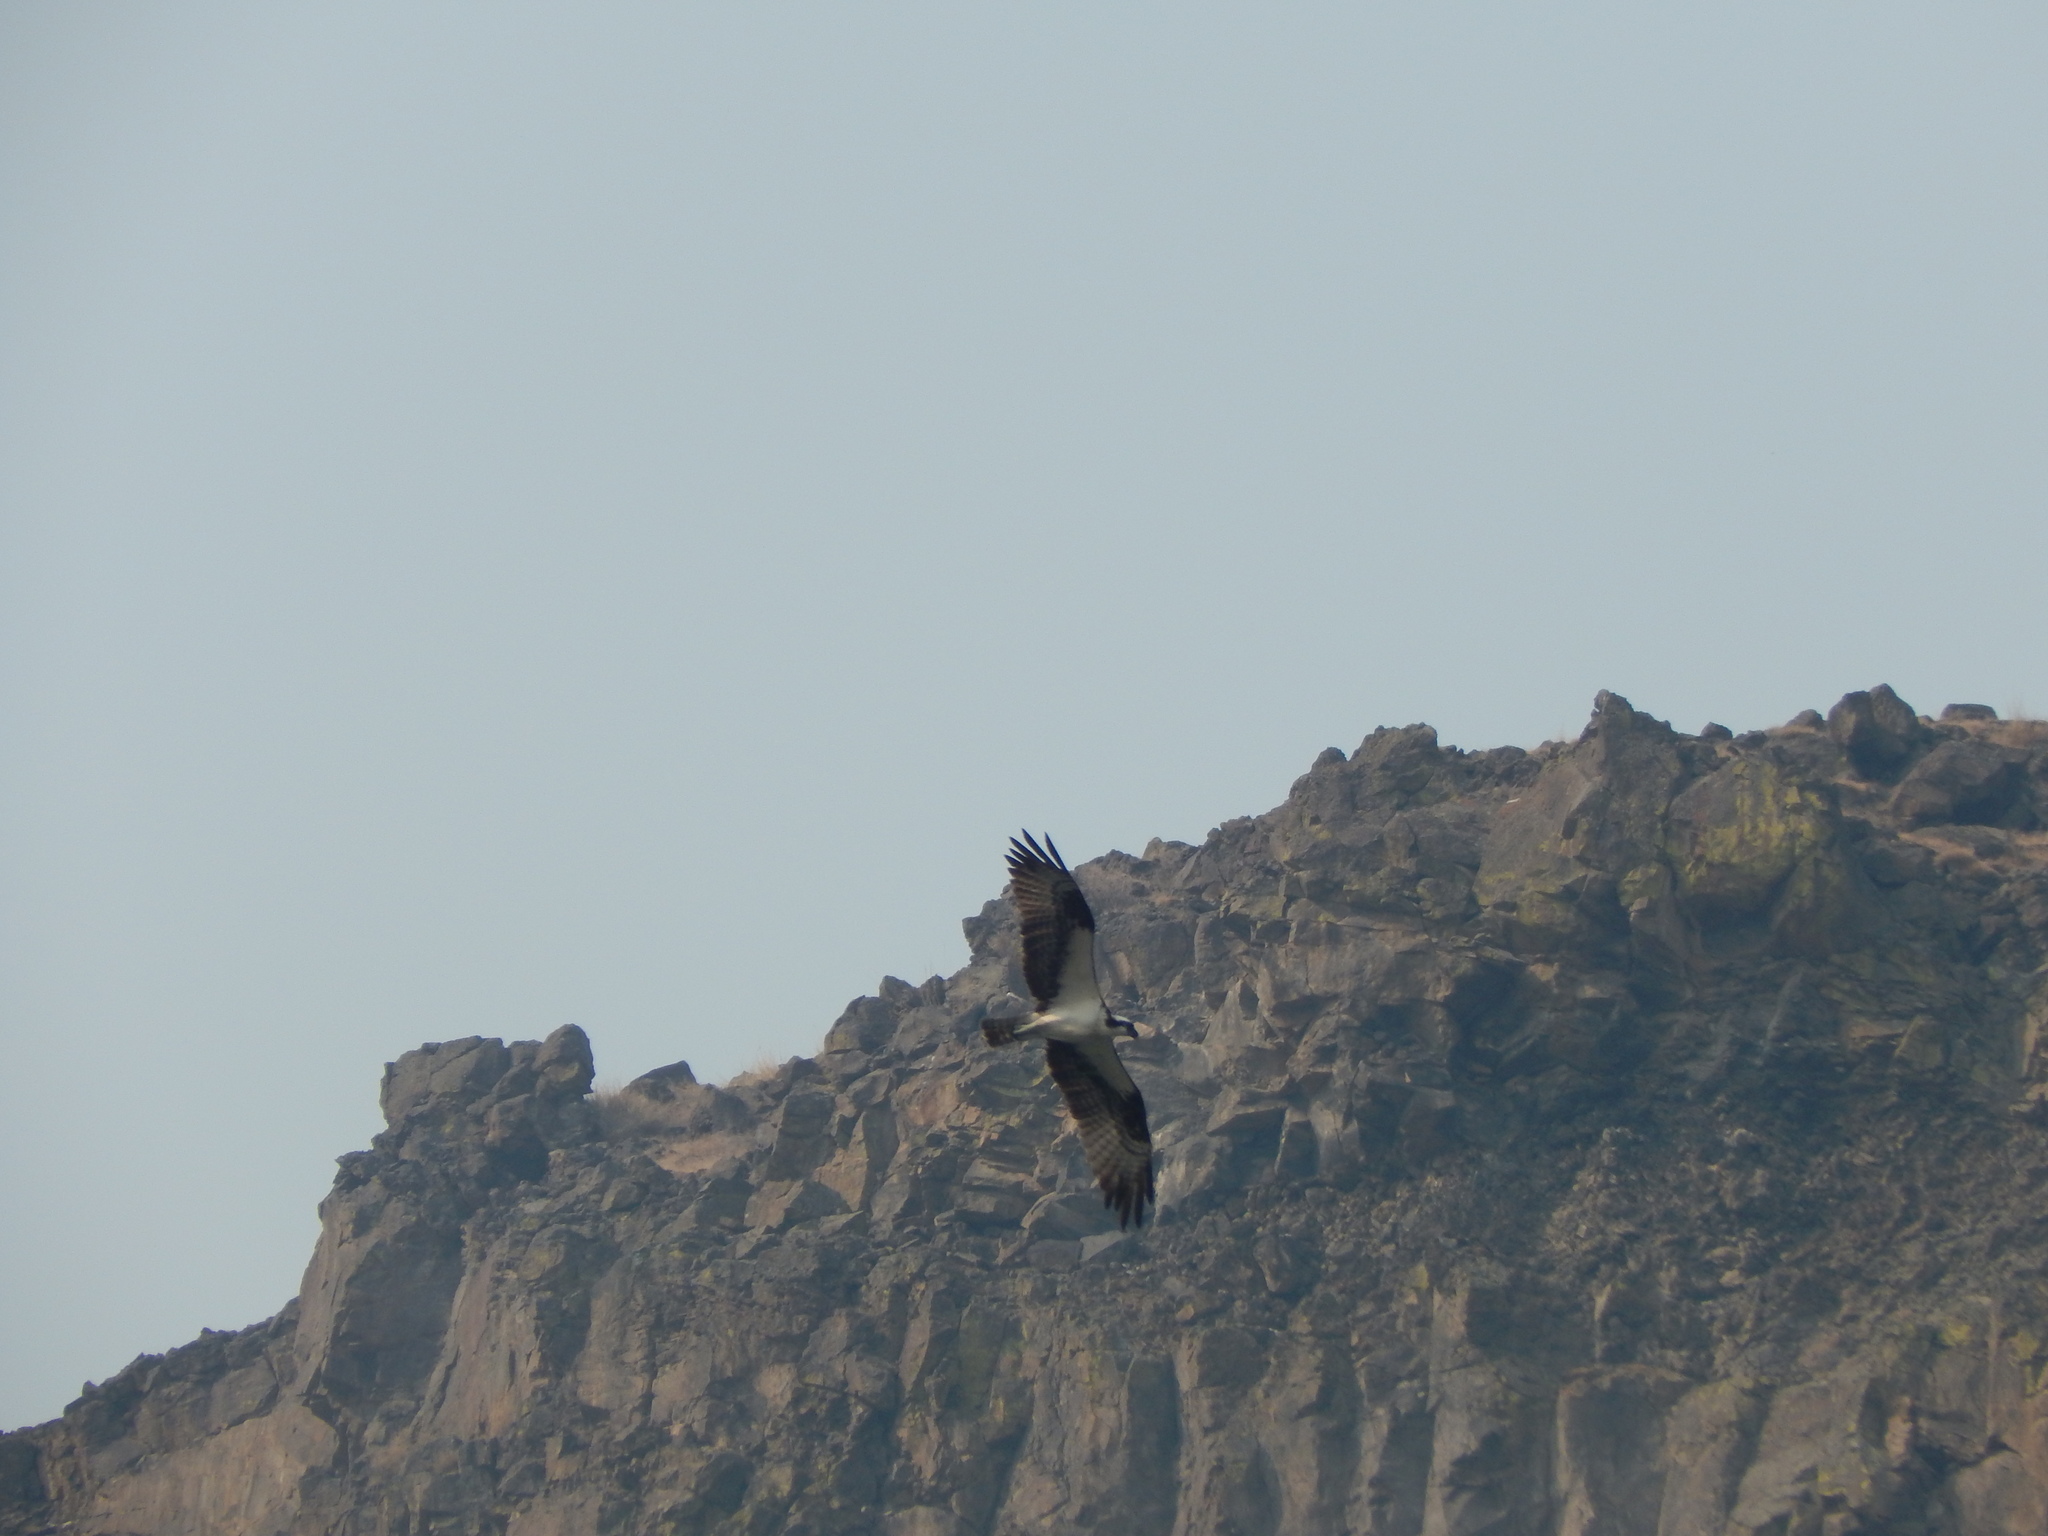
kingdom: Animalia
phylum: Chordata
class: Aves
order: Accipitriformes
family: Pandionidae
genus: Pandion
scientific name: Pandion haliaetus
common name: Osprey
